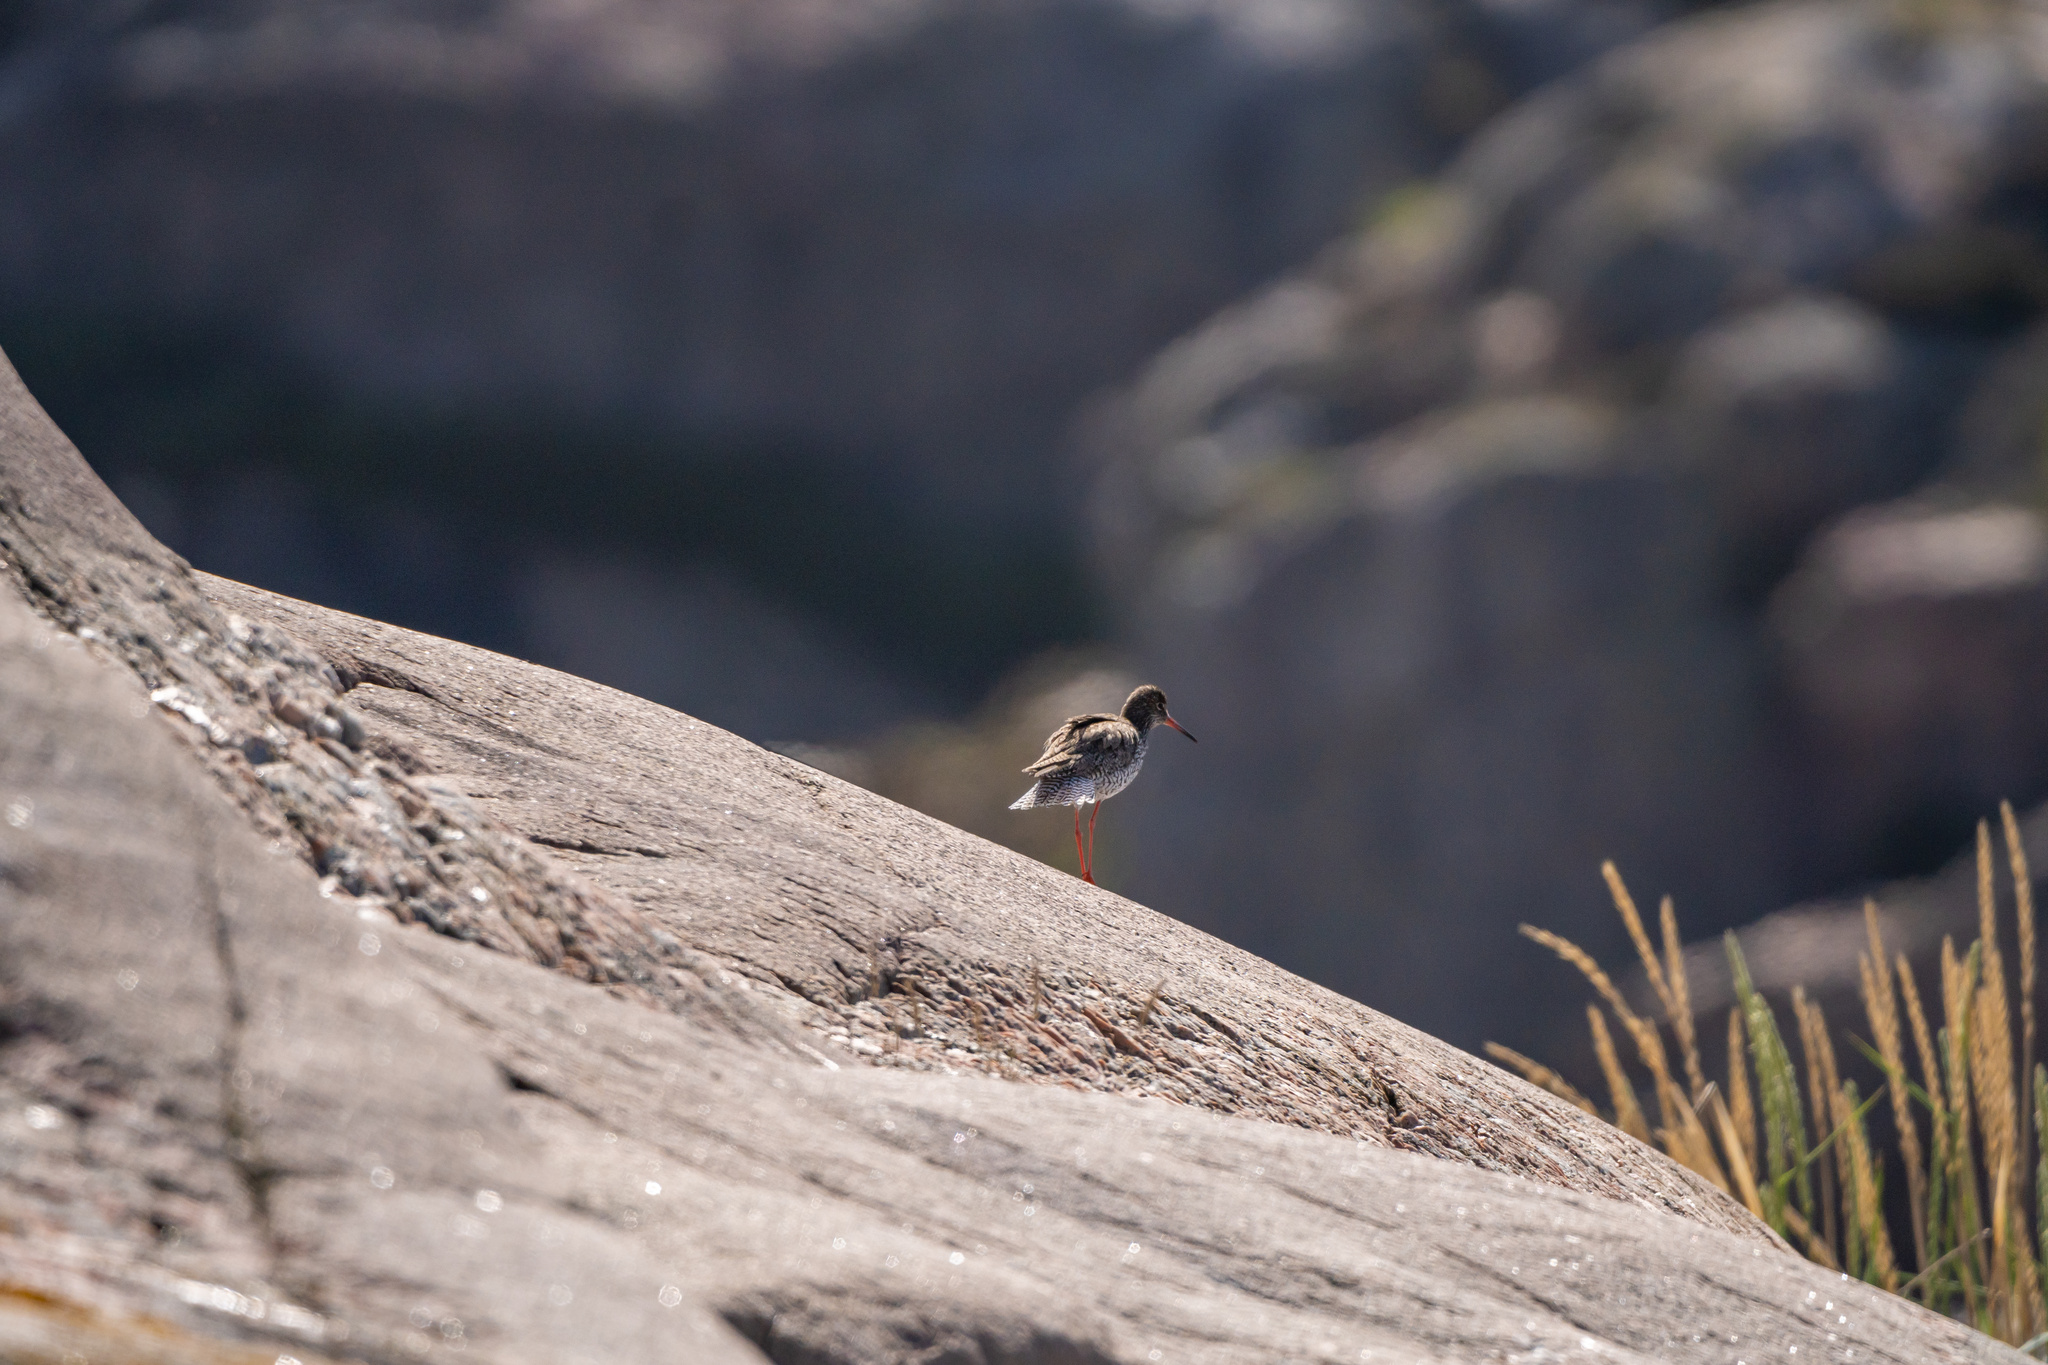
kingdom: Animalia
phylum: Chordata
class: Aves
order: Charadriiformes
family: Scolopacidae
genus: Tringa
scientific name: Tringa totanus
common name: Common redshank
